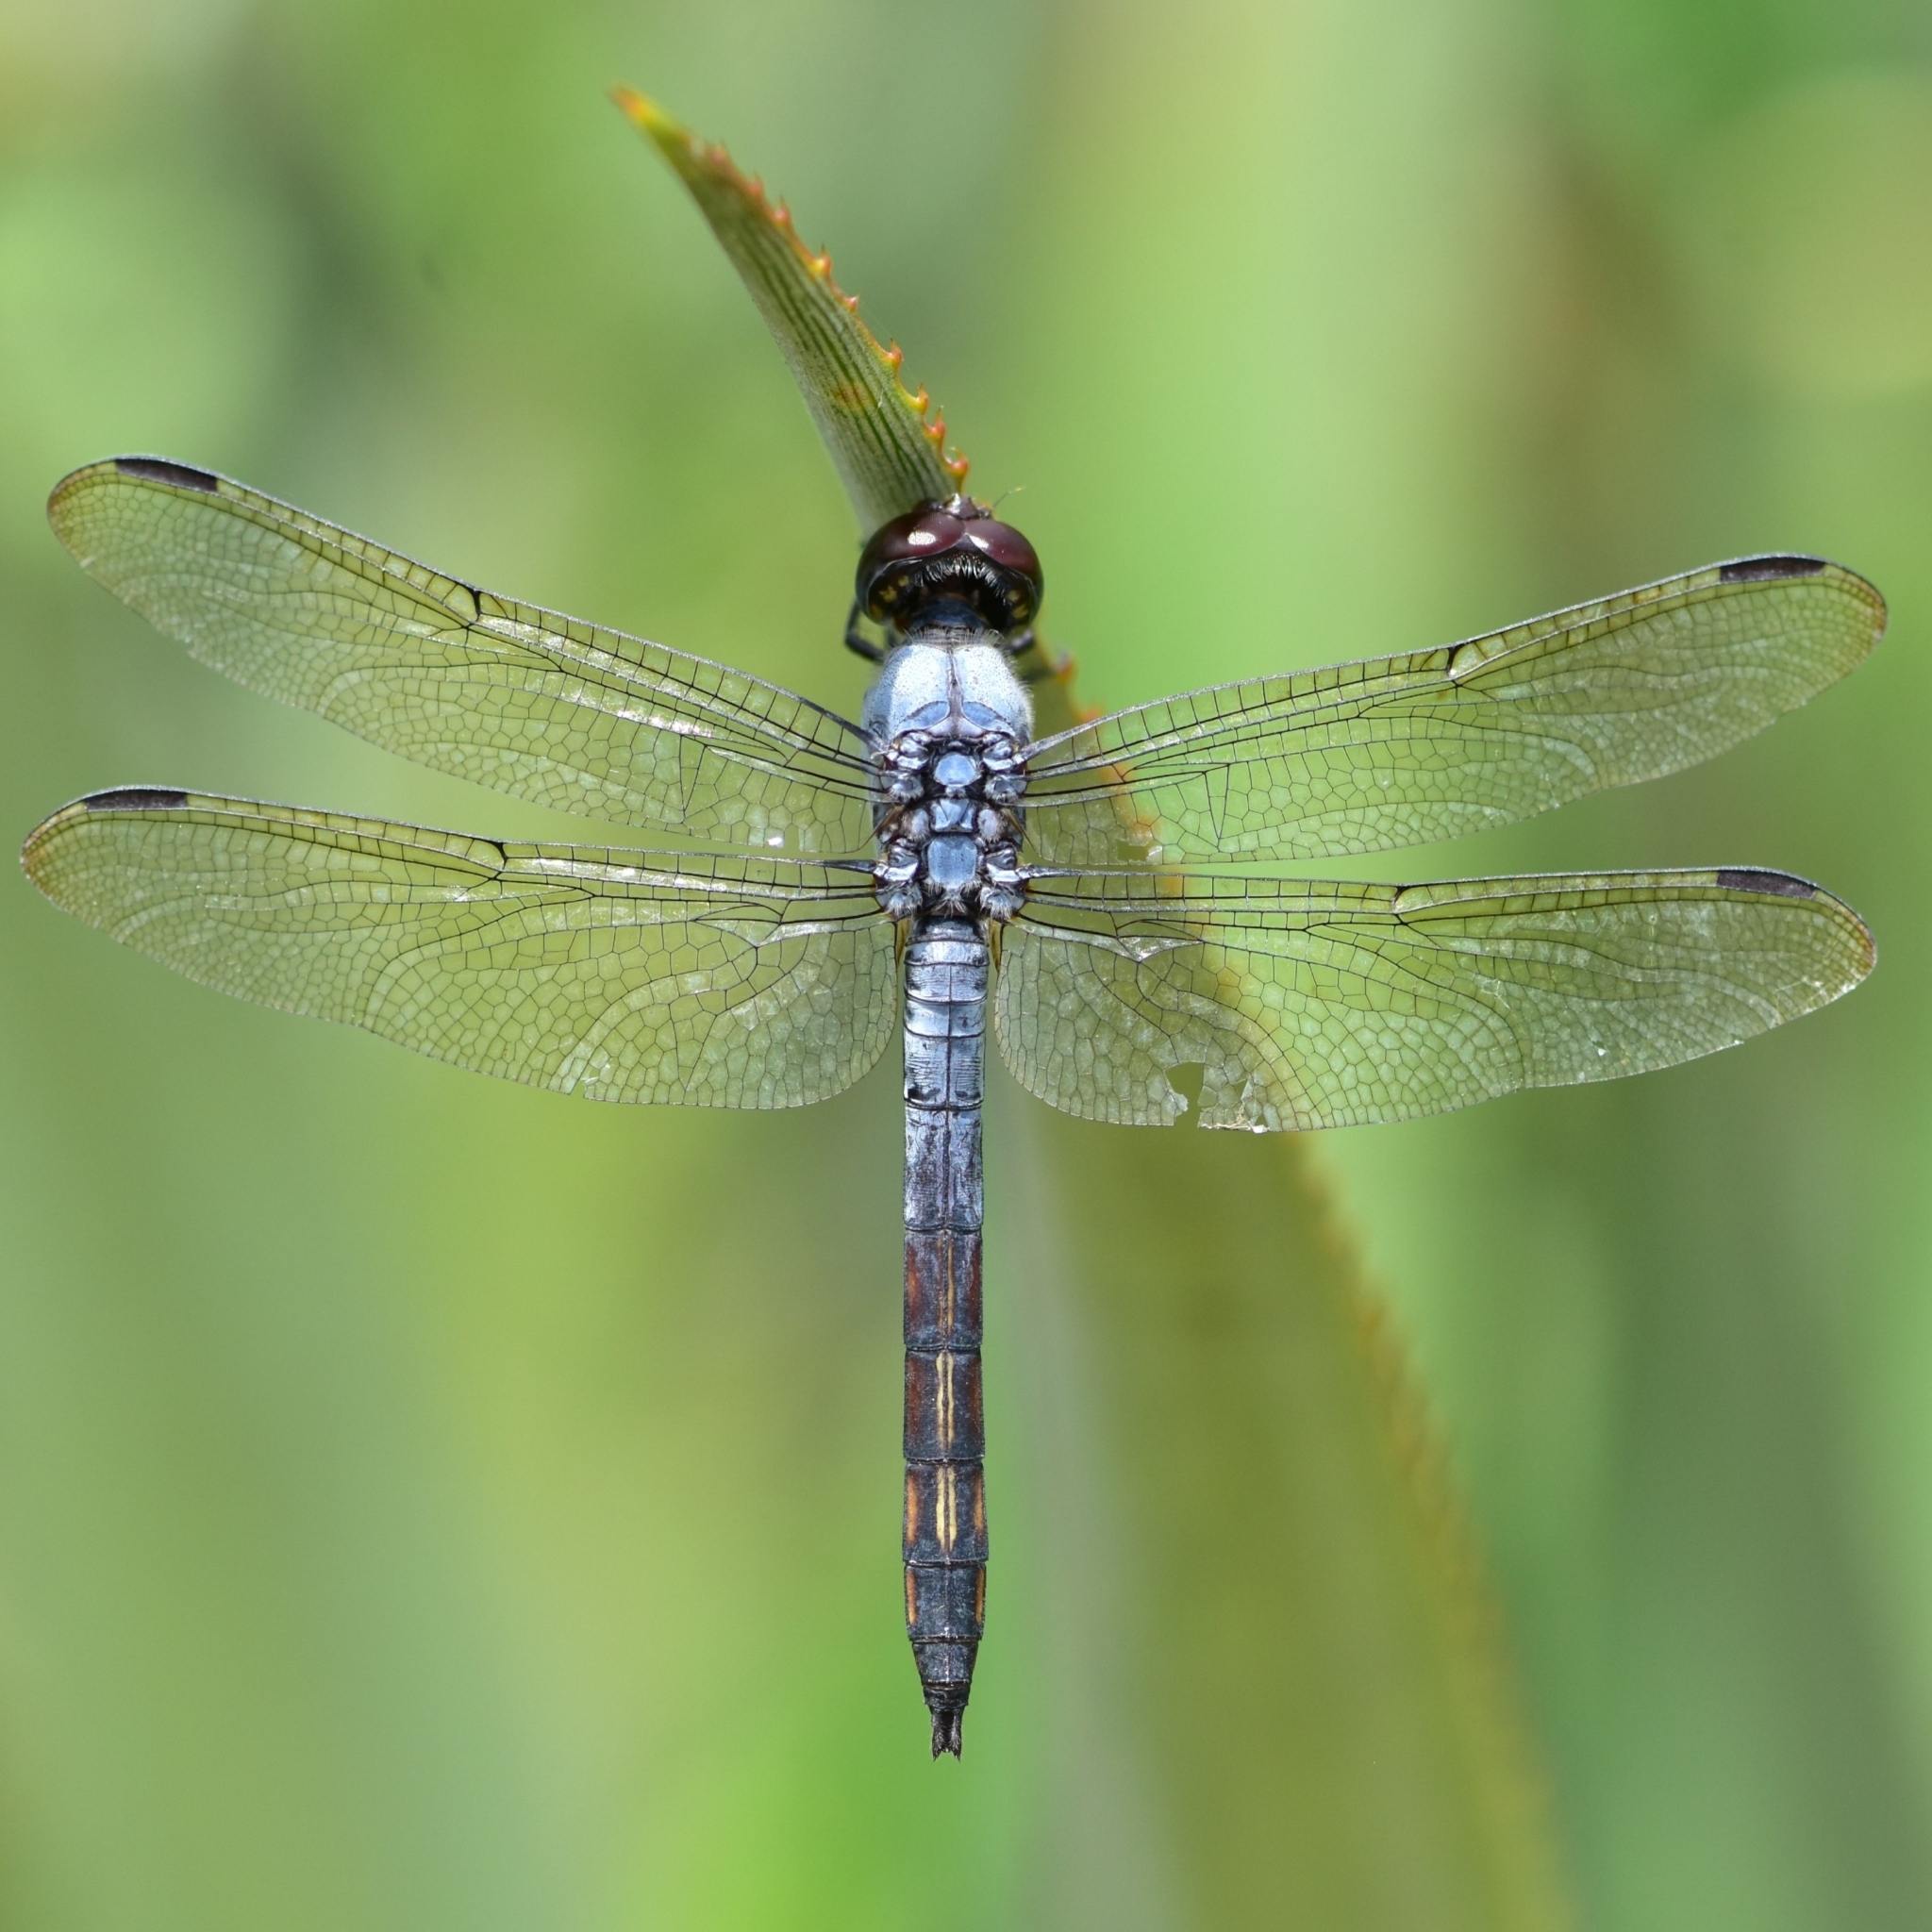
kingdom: Animalia
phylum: Arthropoda
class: Insecta
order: Odonata
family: Libellulidae
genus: Potamarcha
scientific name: Potamarcha congener
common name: Blue chaser
